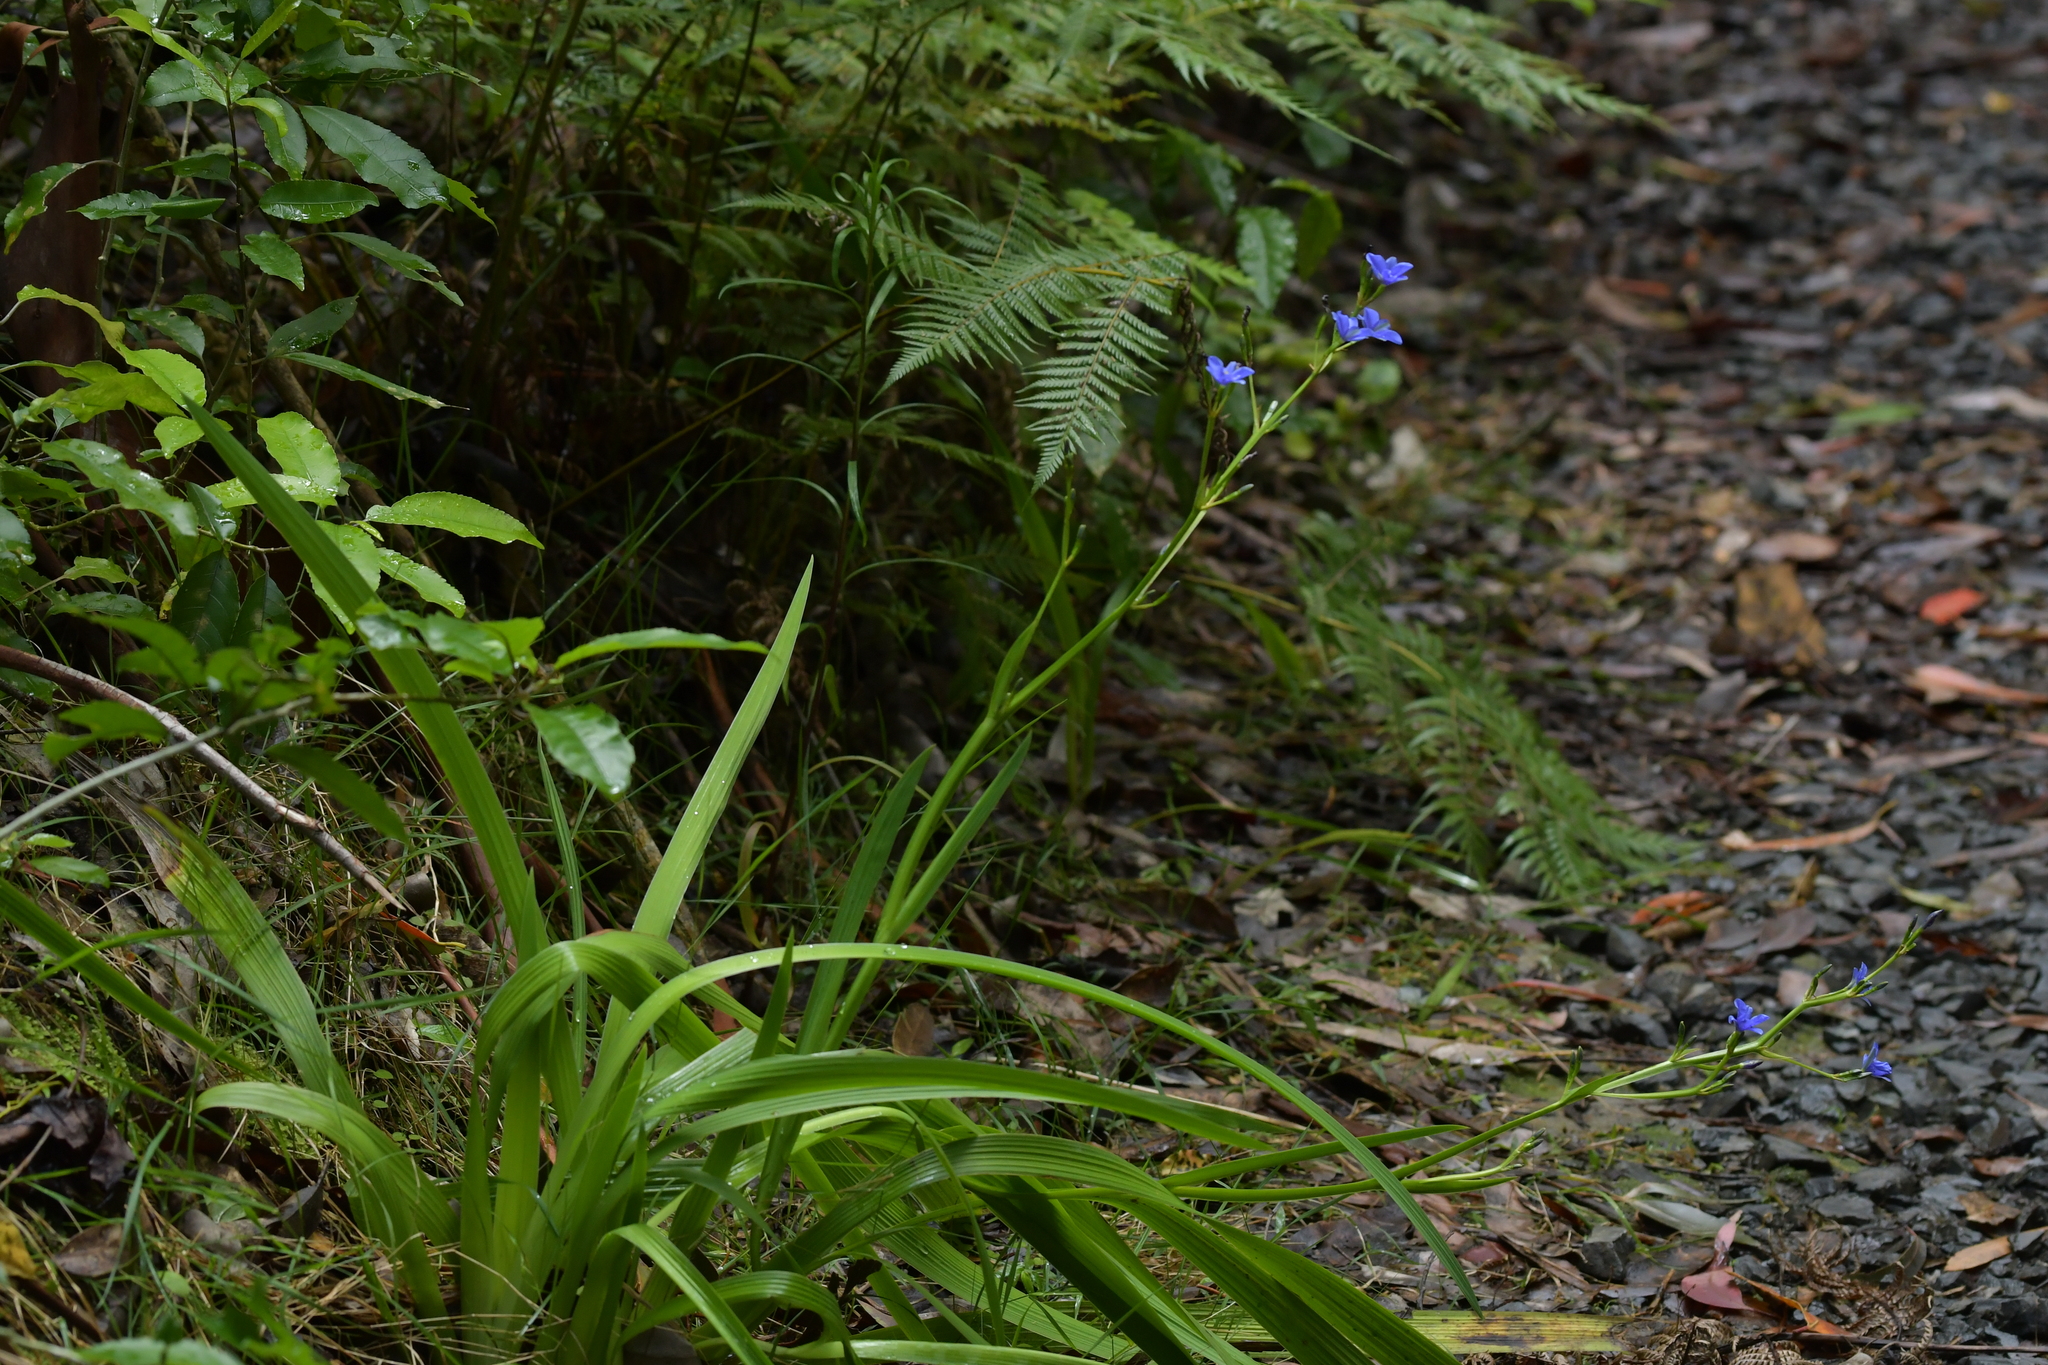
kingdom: Plantae
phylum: Tracheophyta
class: Liliopsida
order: Asparagales
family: Iridaceae
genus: Aristea
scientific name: Aristea ecklonii
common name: Blue corn-lily
